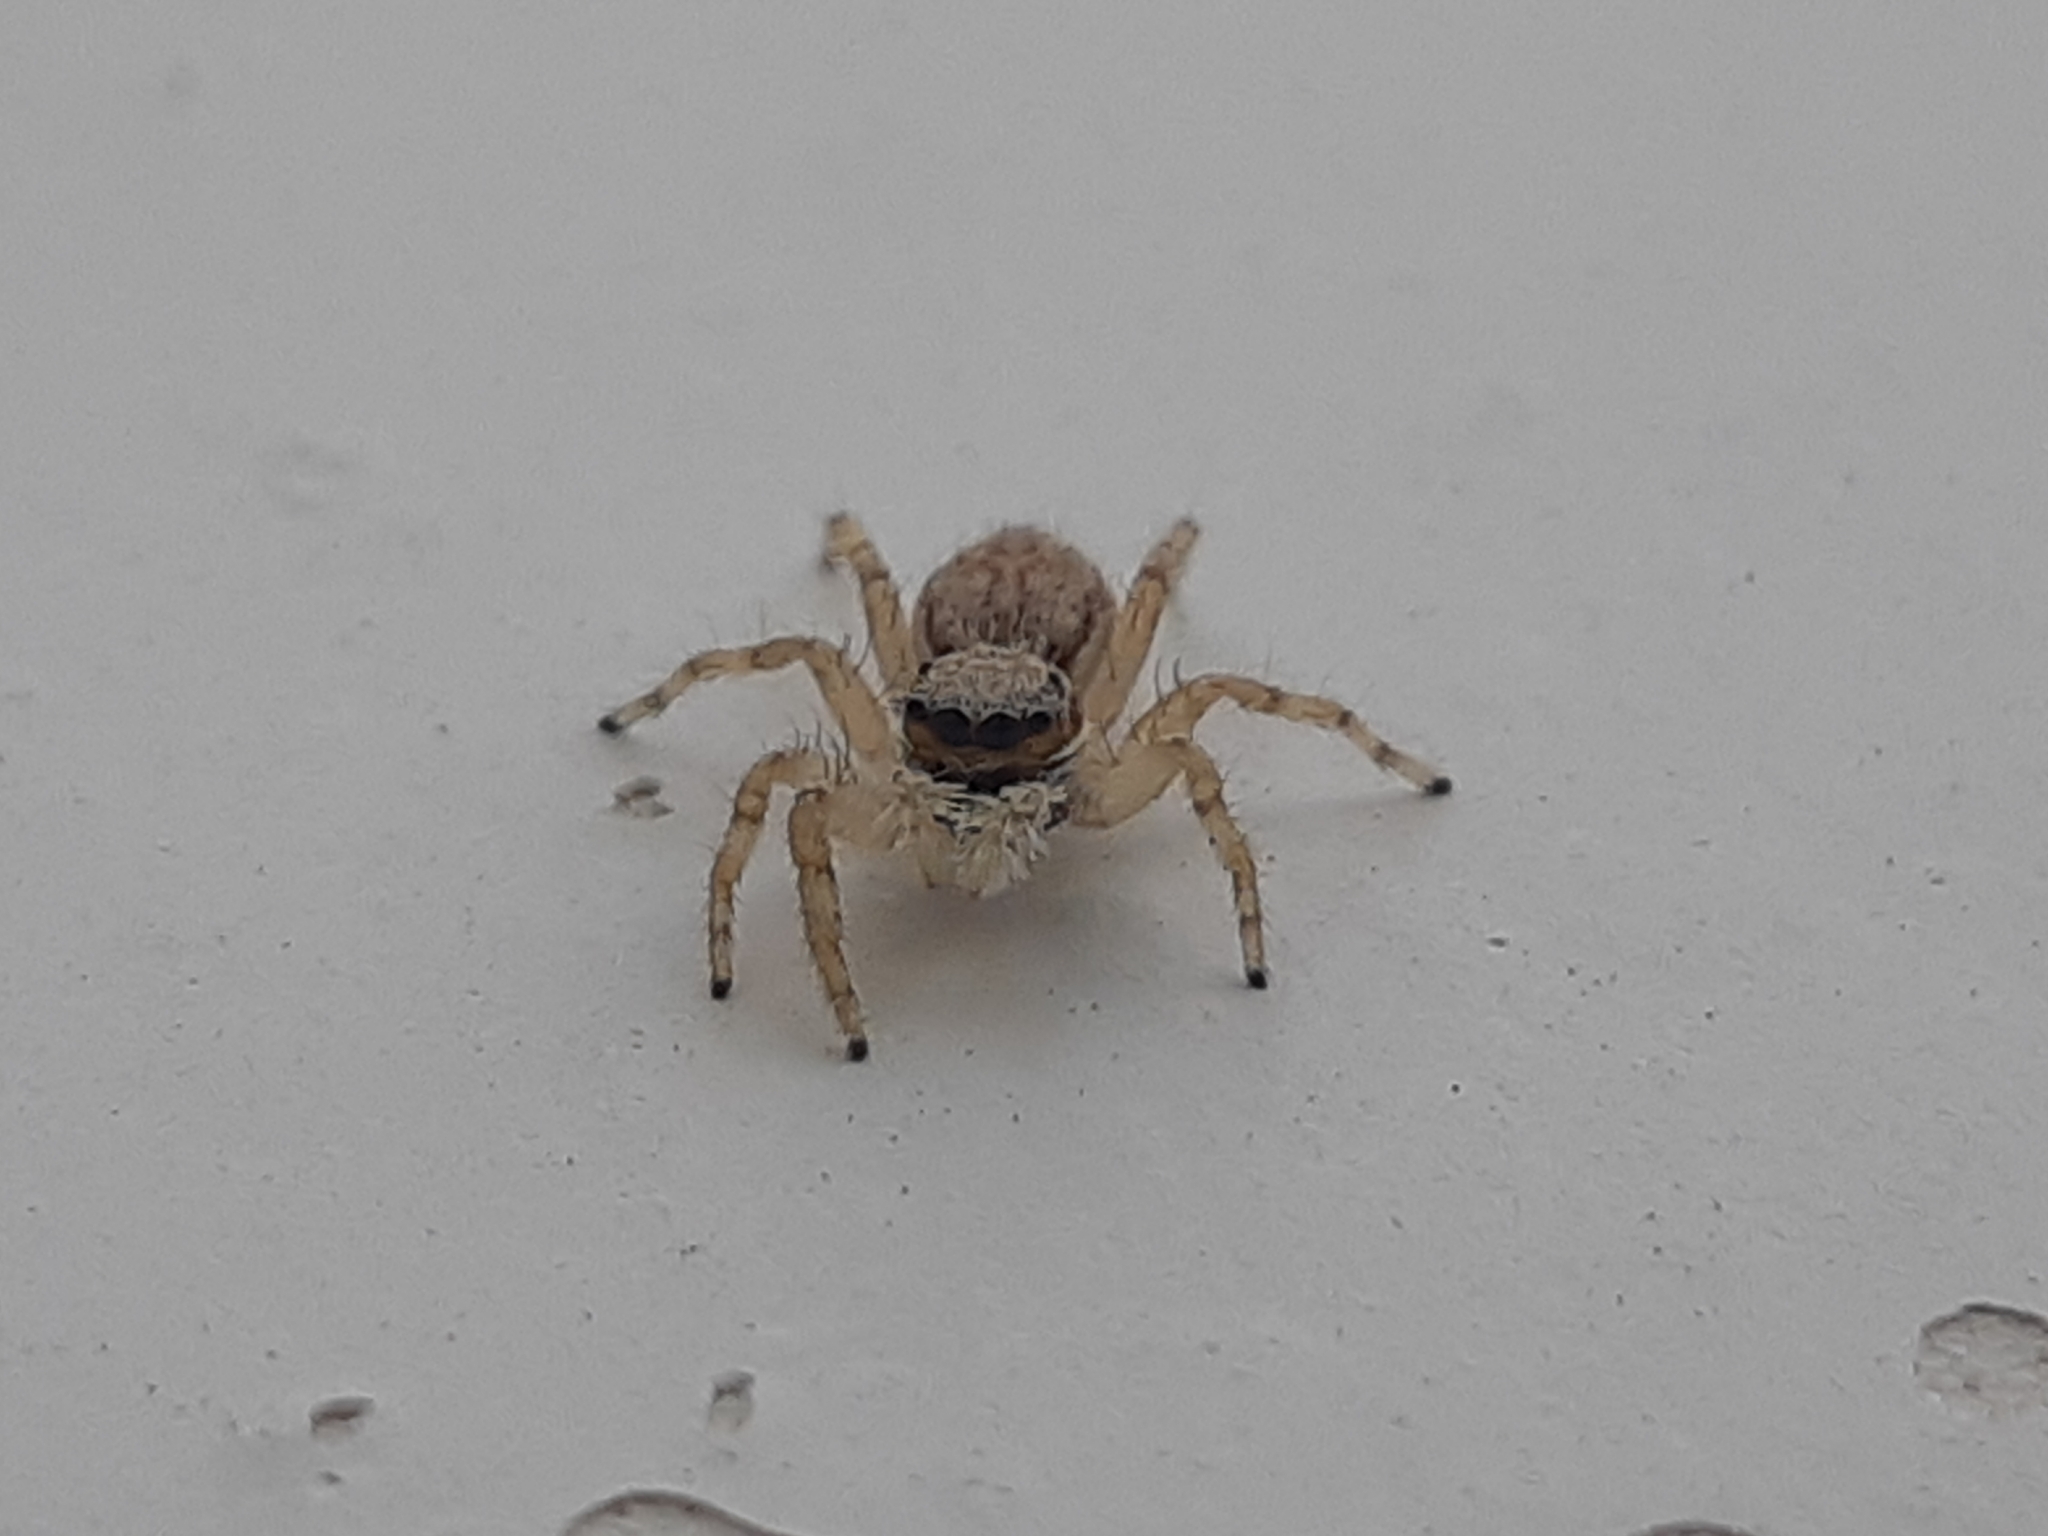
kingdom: Animalia
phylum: Arthropoda
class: Arachnida
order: Araneae
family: Salticidae
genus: Menemerus
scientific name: Menemerus bivittatus
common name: Gray wall jumper
